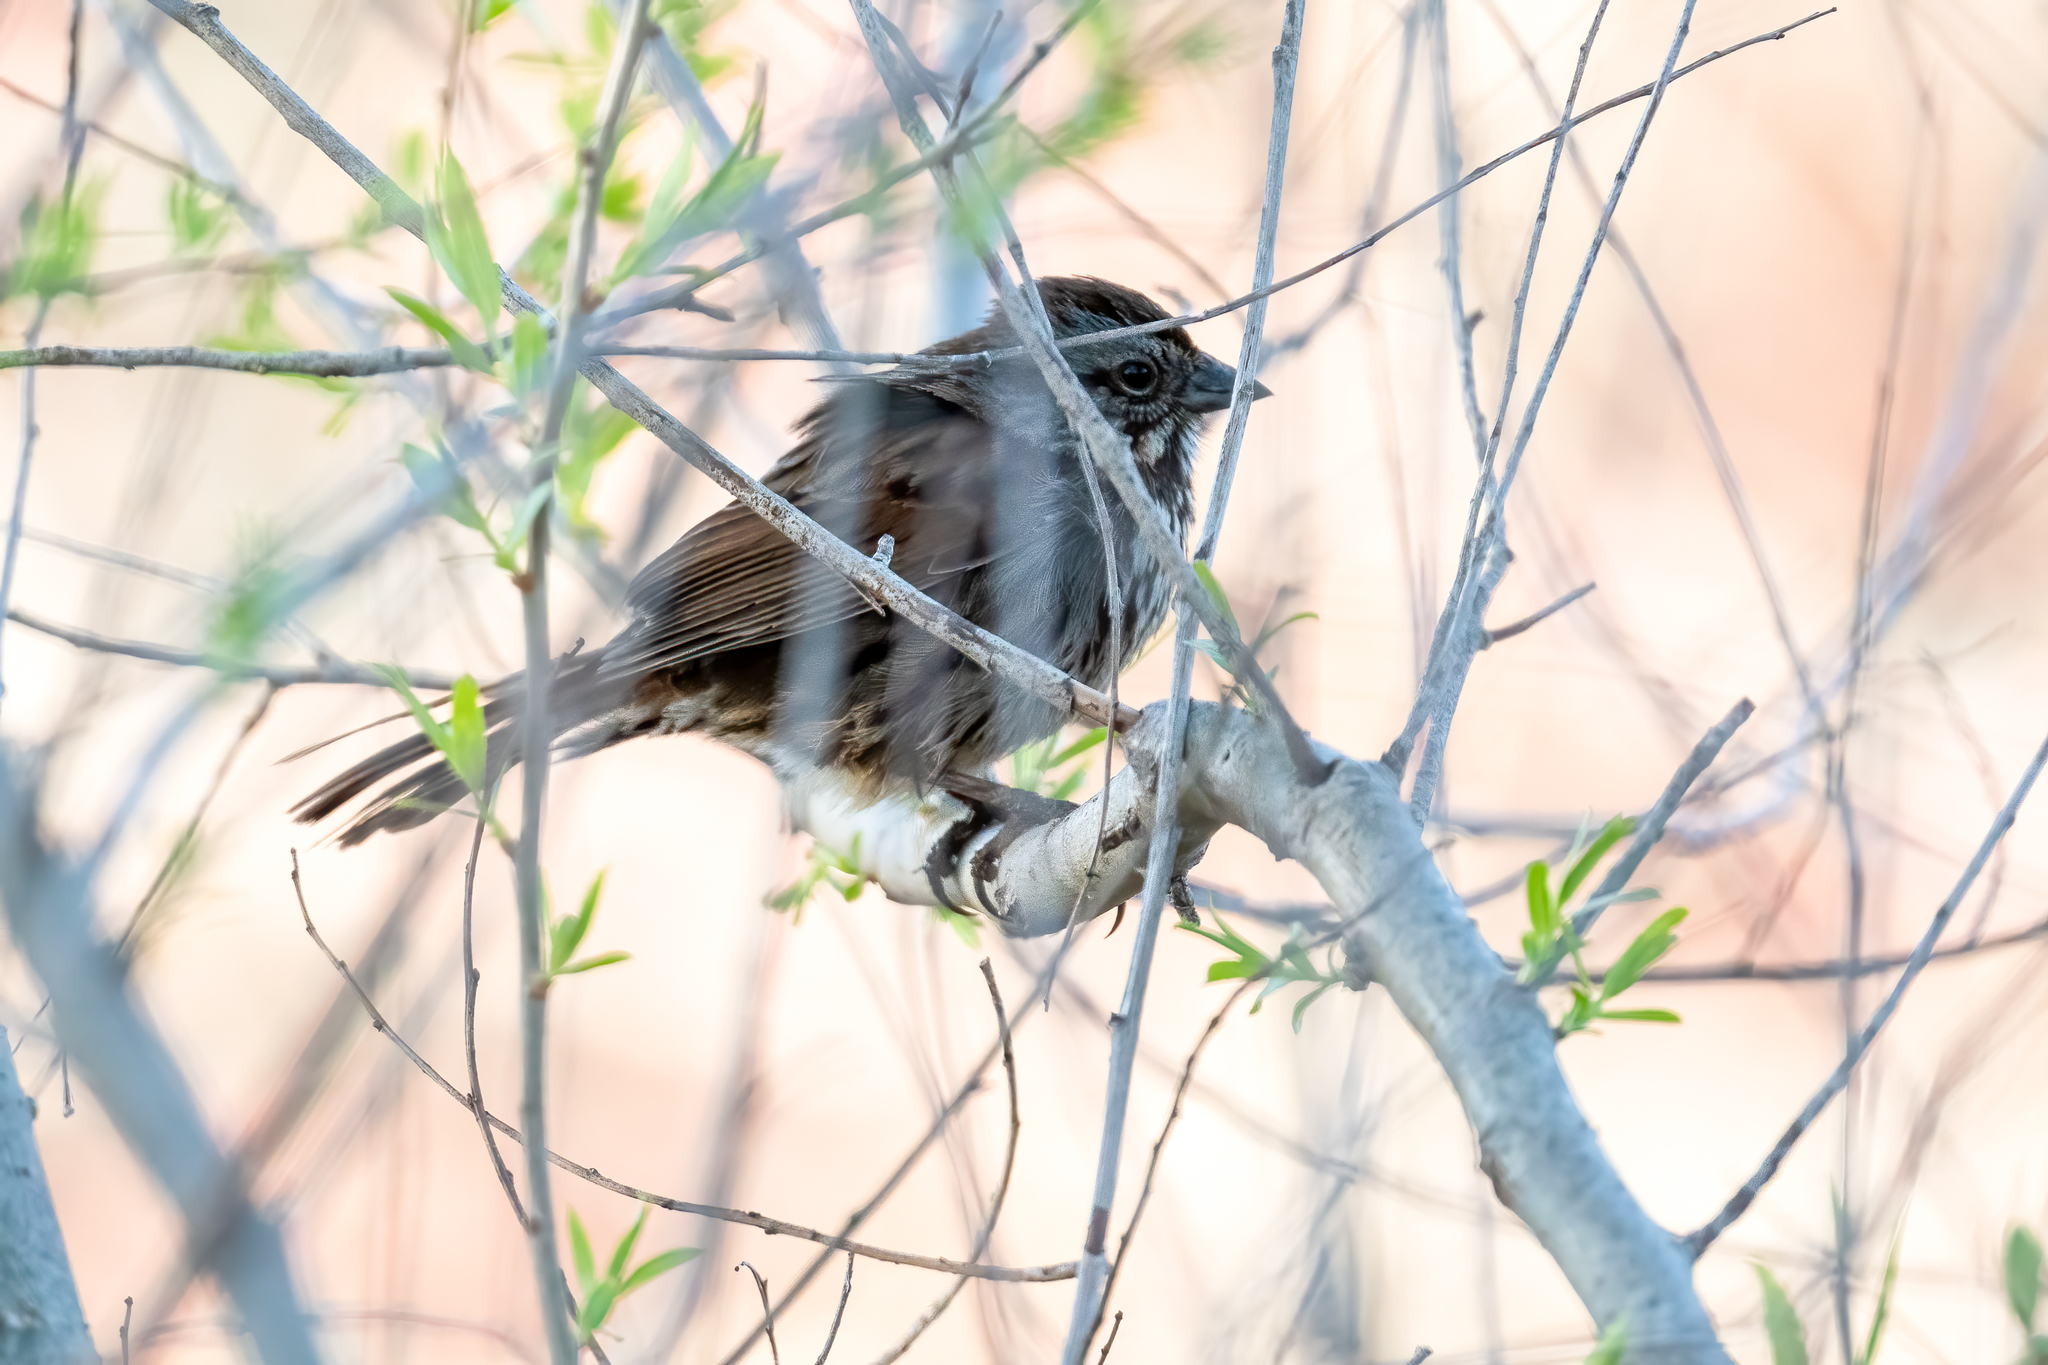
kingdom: Animalia
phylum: Chordata
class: Aves
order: Passeriformes
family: Passerellidae
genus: Melospiza
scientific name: Melospiza melodia
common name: Song sparrow
